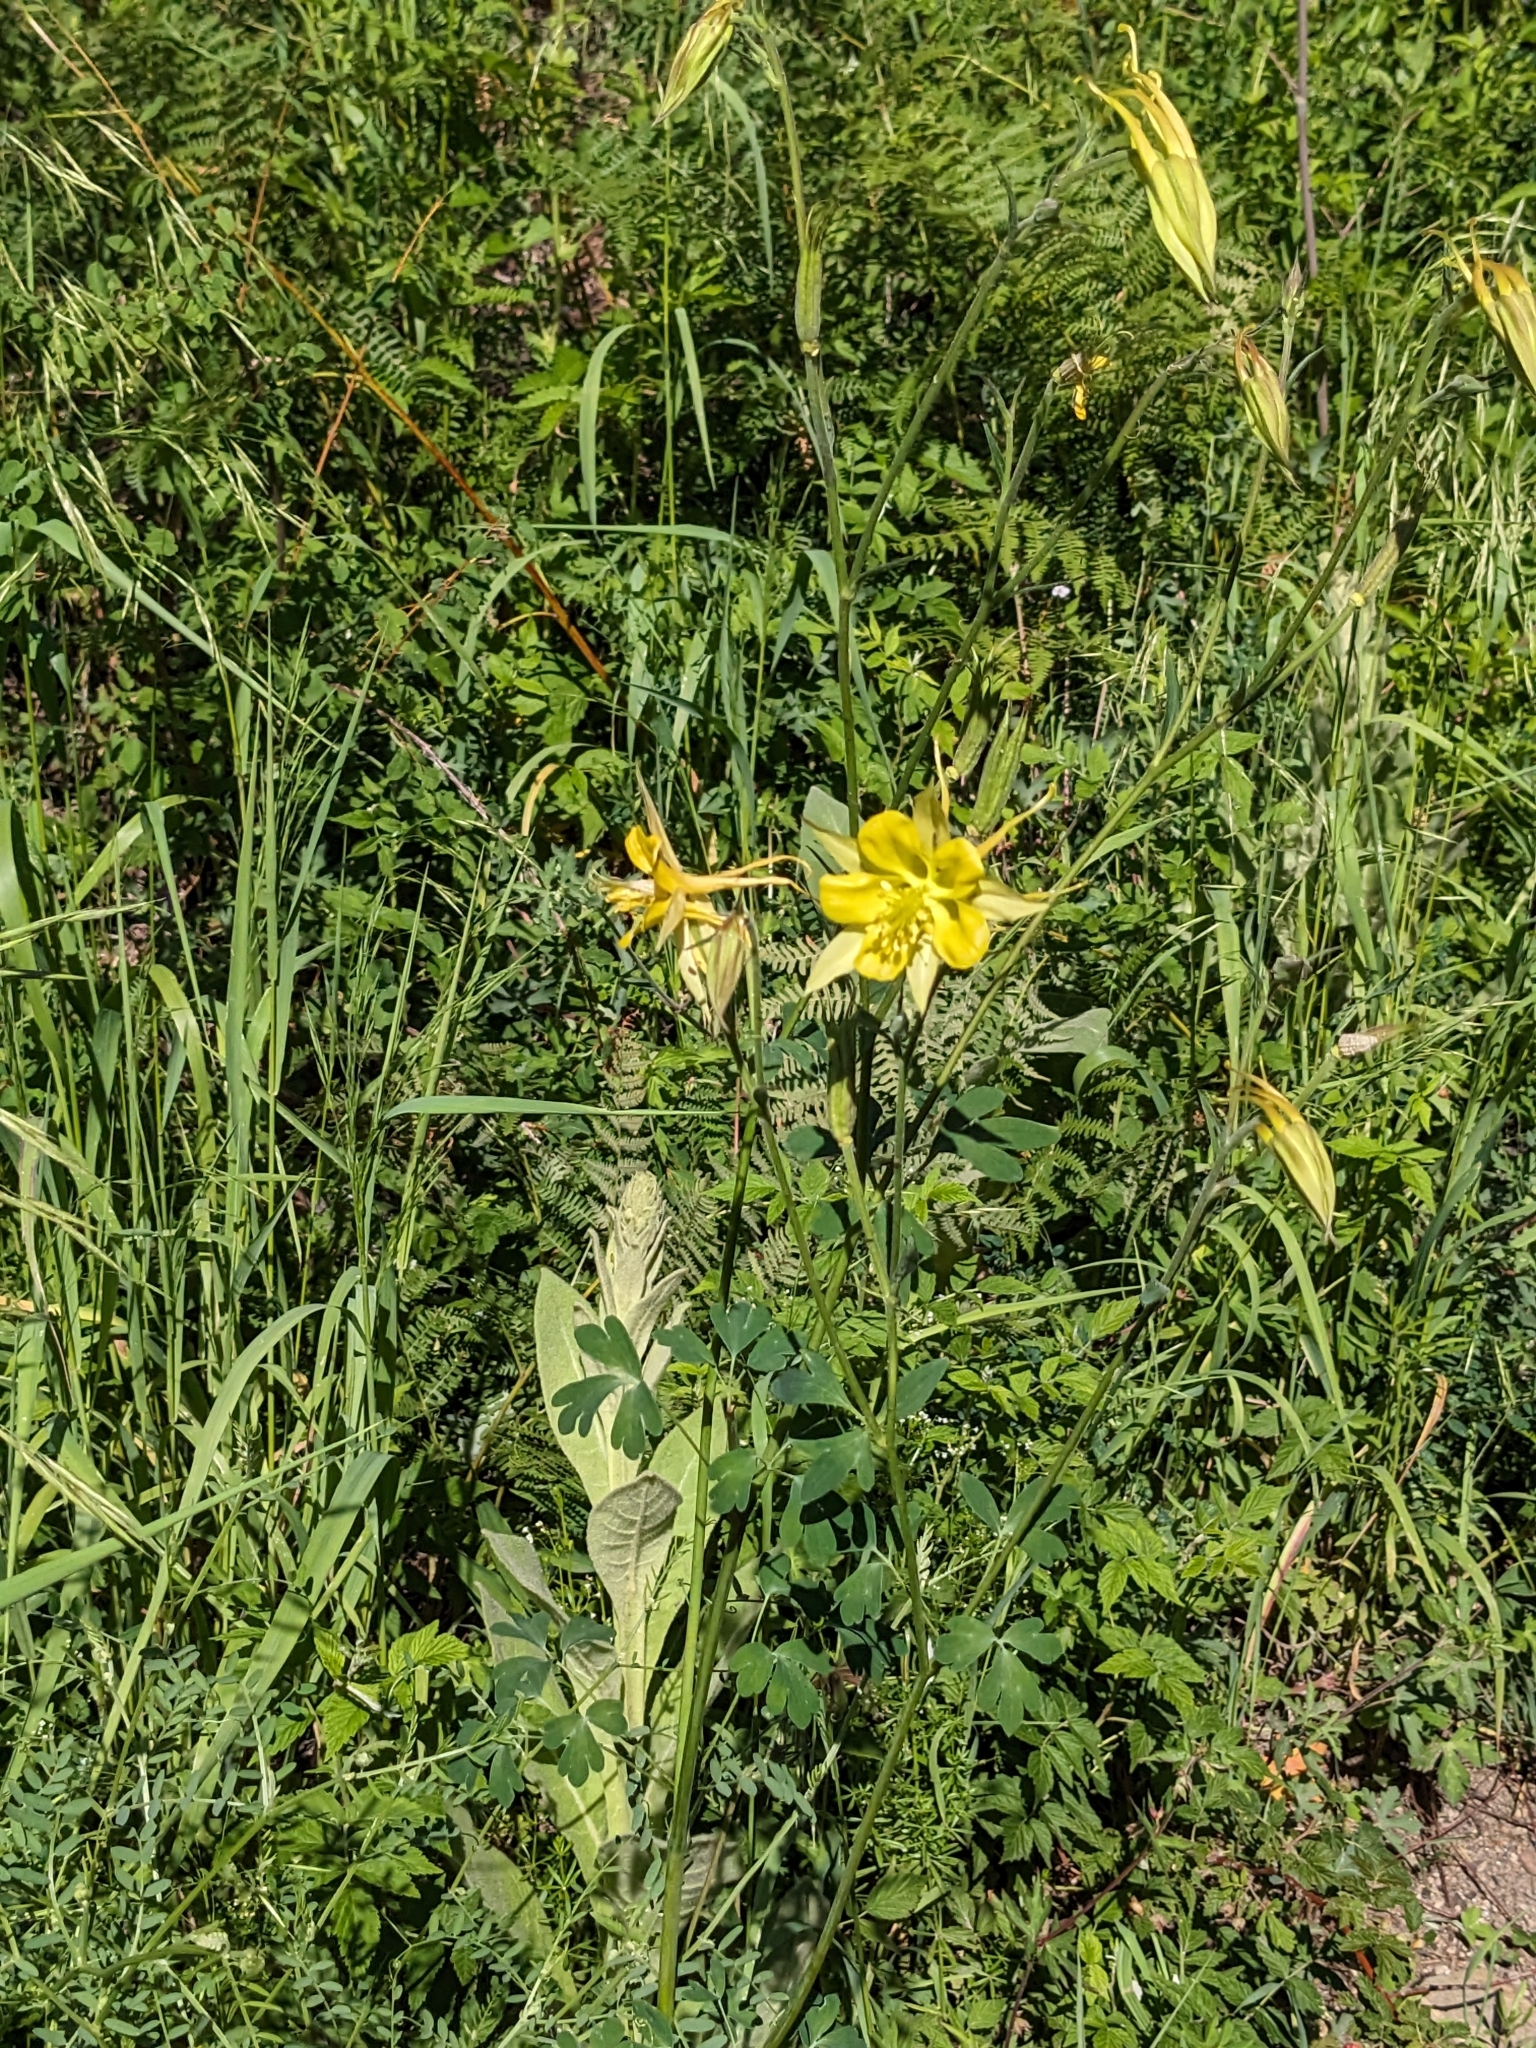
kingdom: Plantae
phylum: Tracheophyta
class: Magnoliopsida
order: Ranunculales
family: Ranunculaceae
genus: Aquilegia
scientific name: Aquilegia chrysantha
